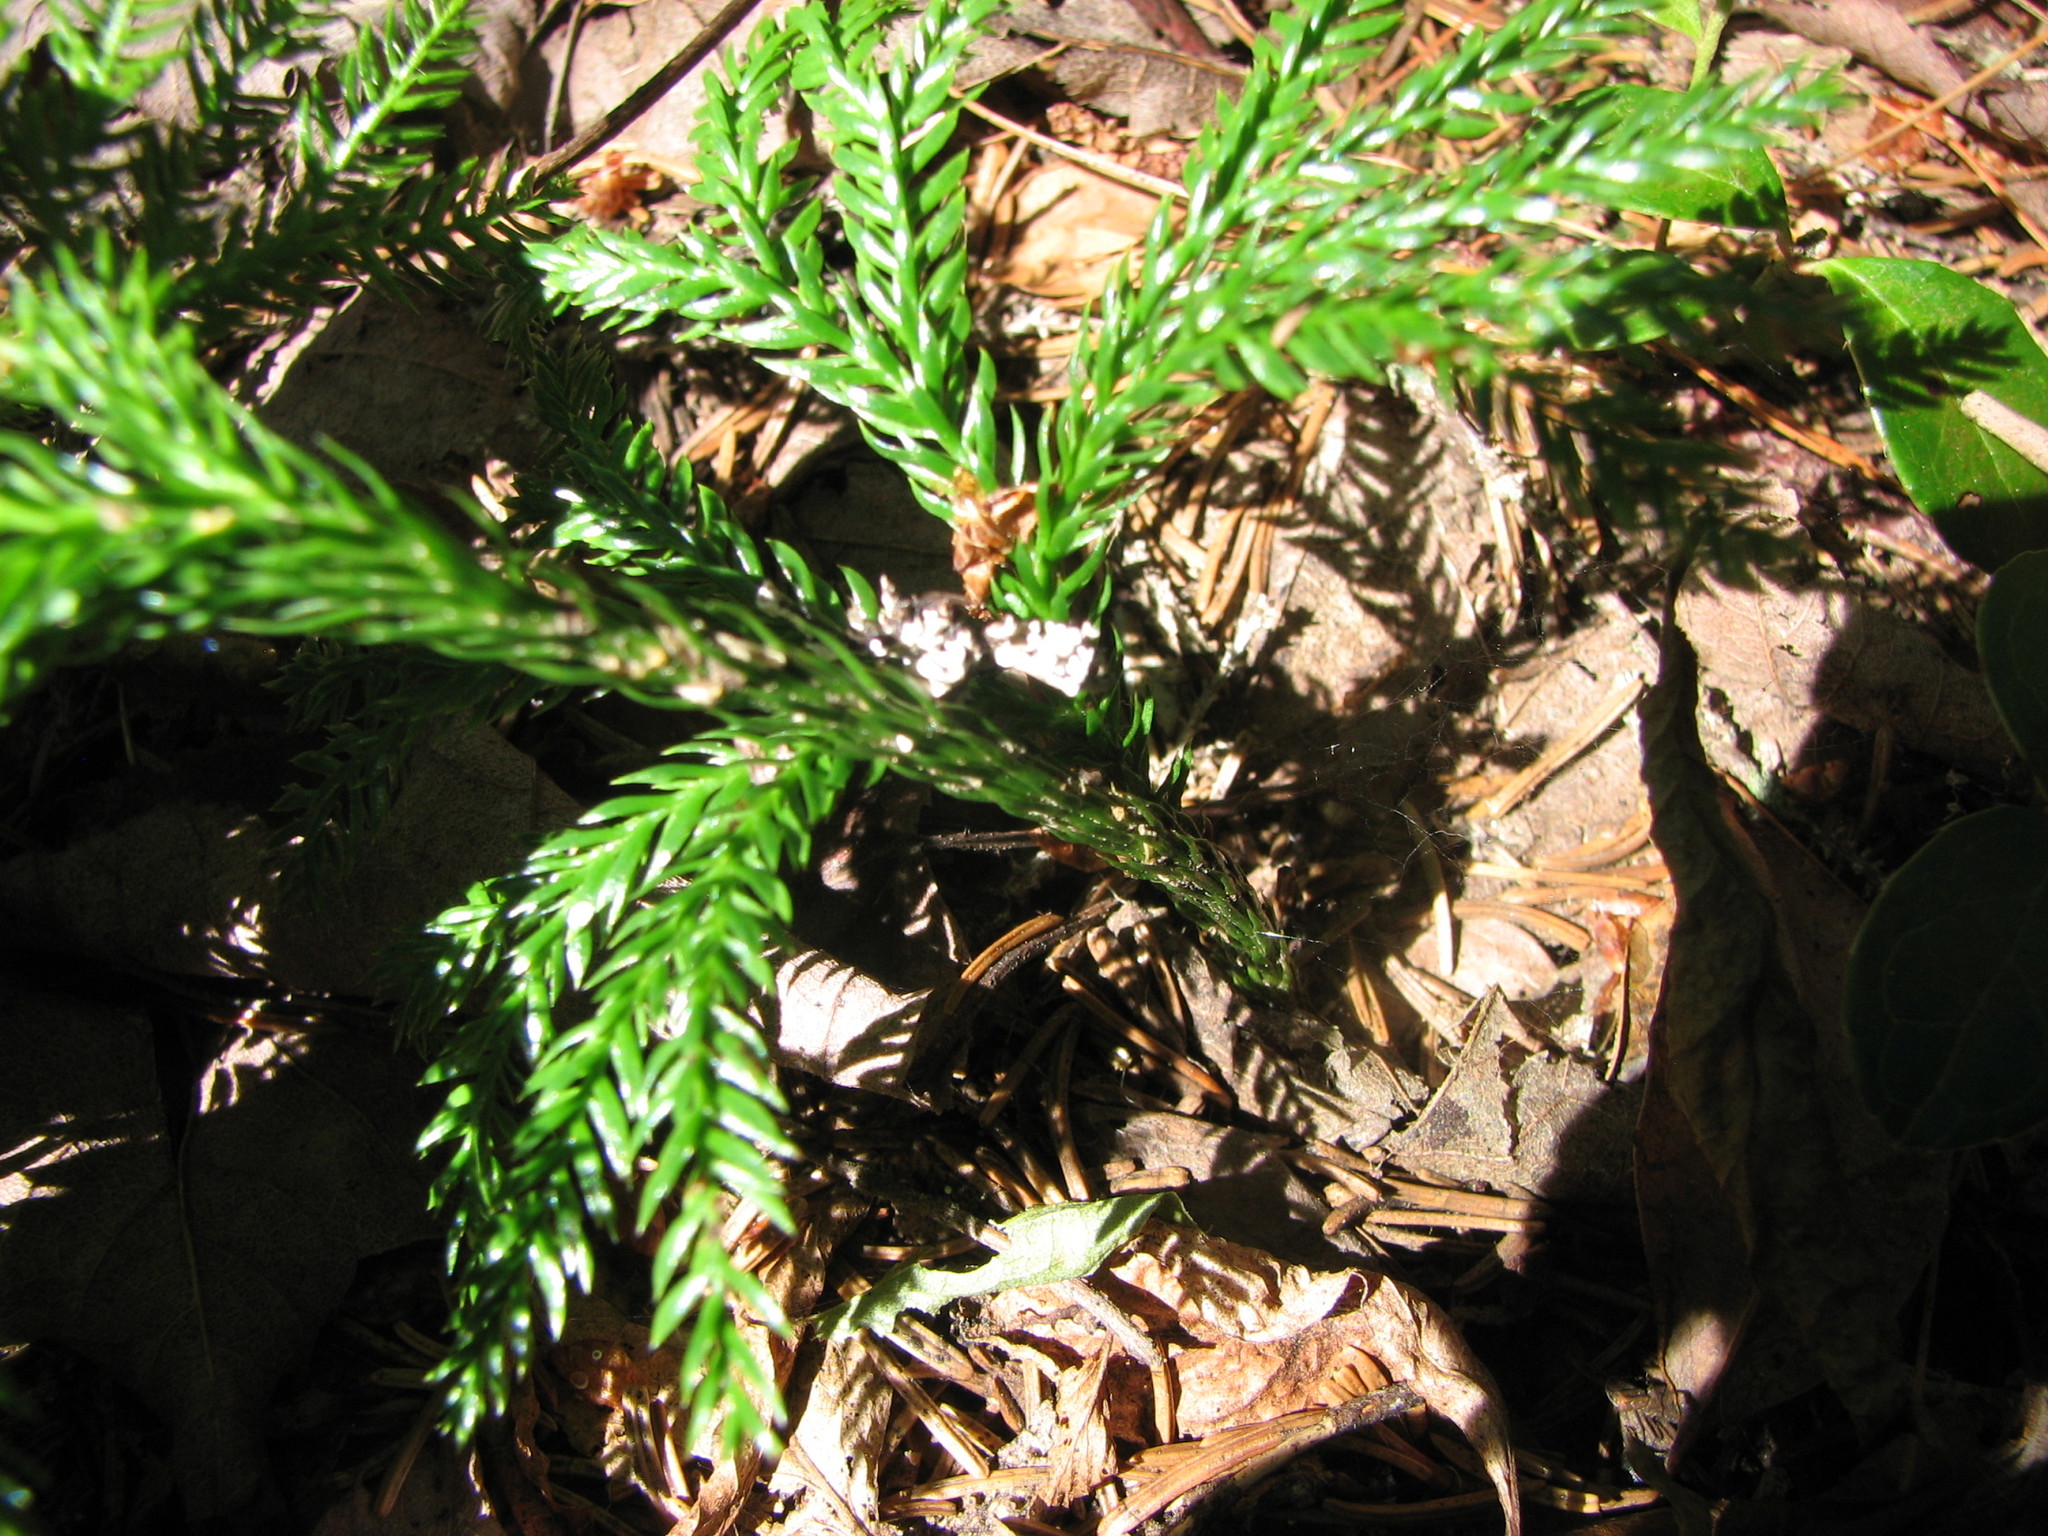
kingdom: Plantae
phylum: Tracheophyta
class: Lycopodiopsida
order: Lycopodiales
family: Lycopodiaceae
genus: Dendrolycopodium
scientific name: Dendrolycopodium obscurum
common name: Common ground-pine
